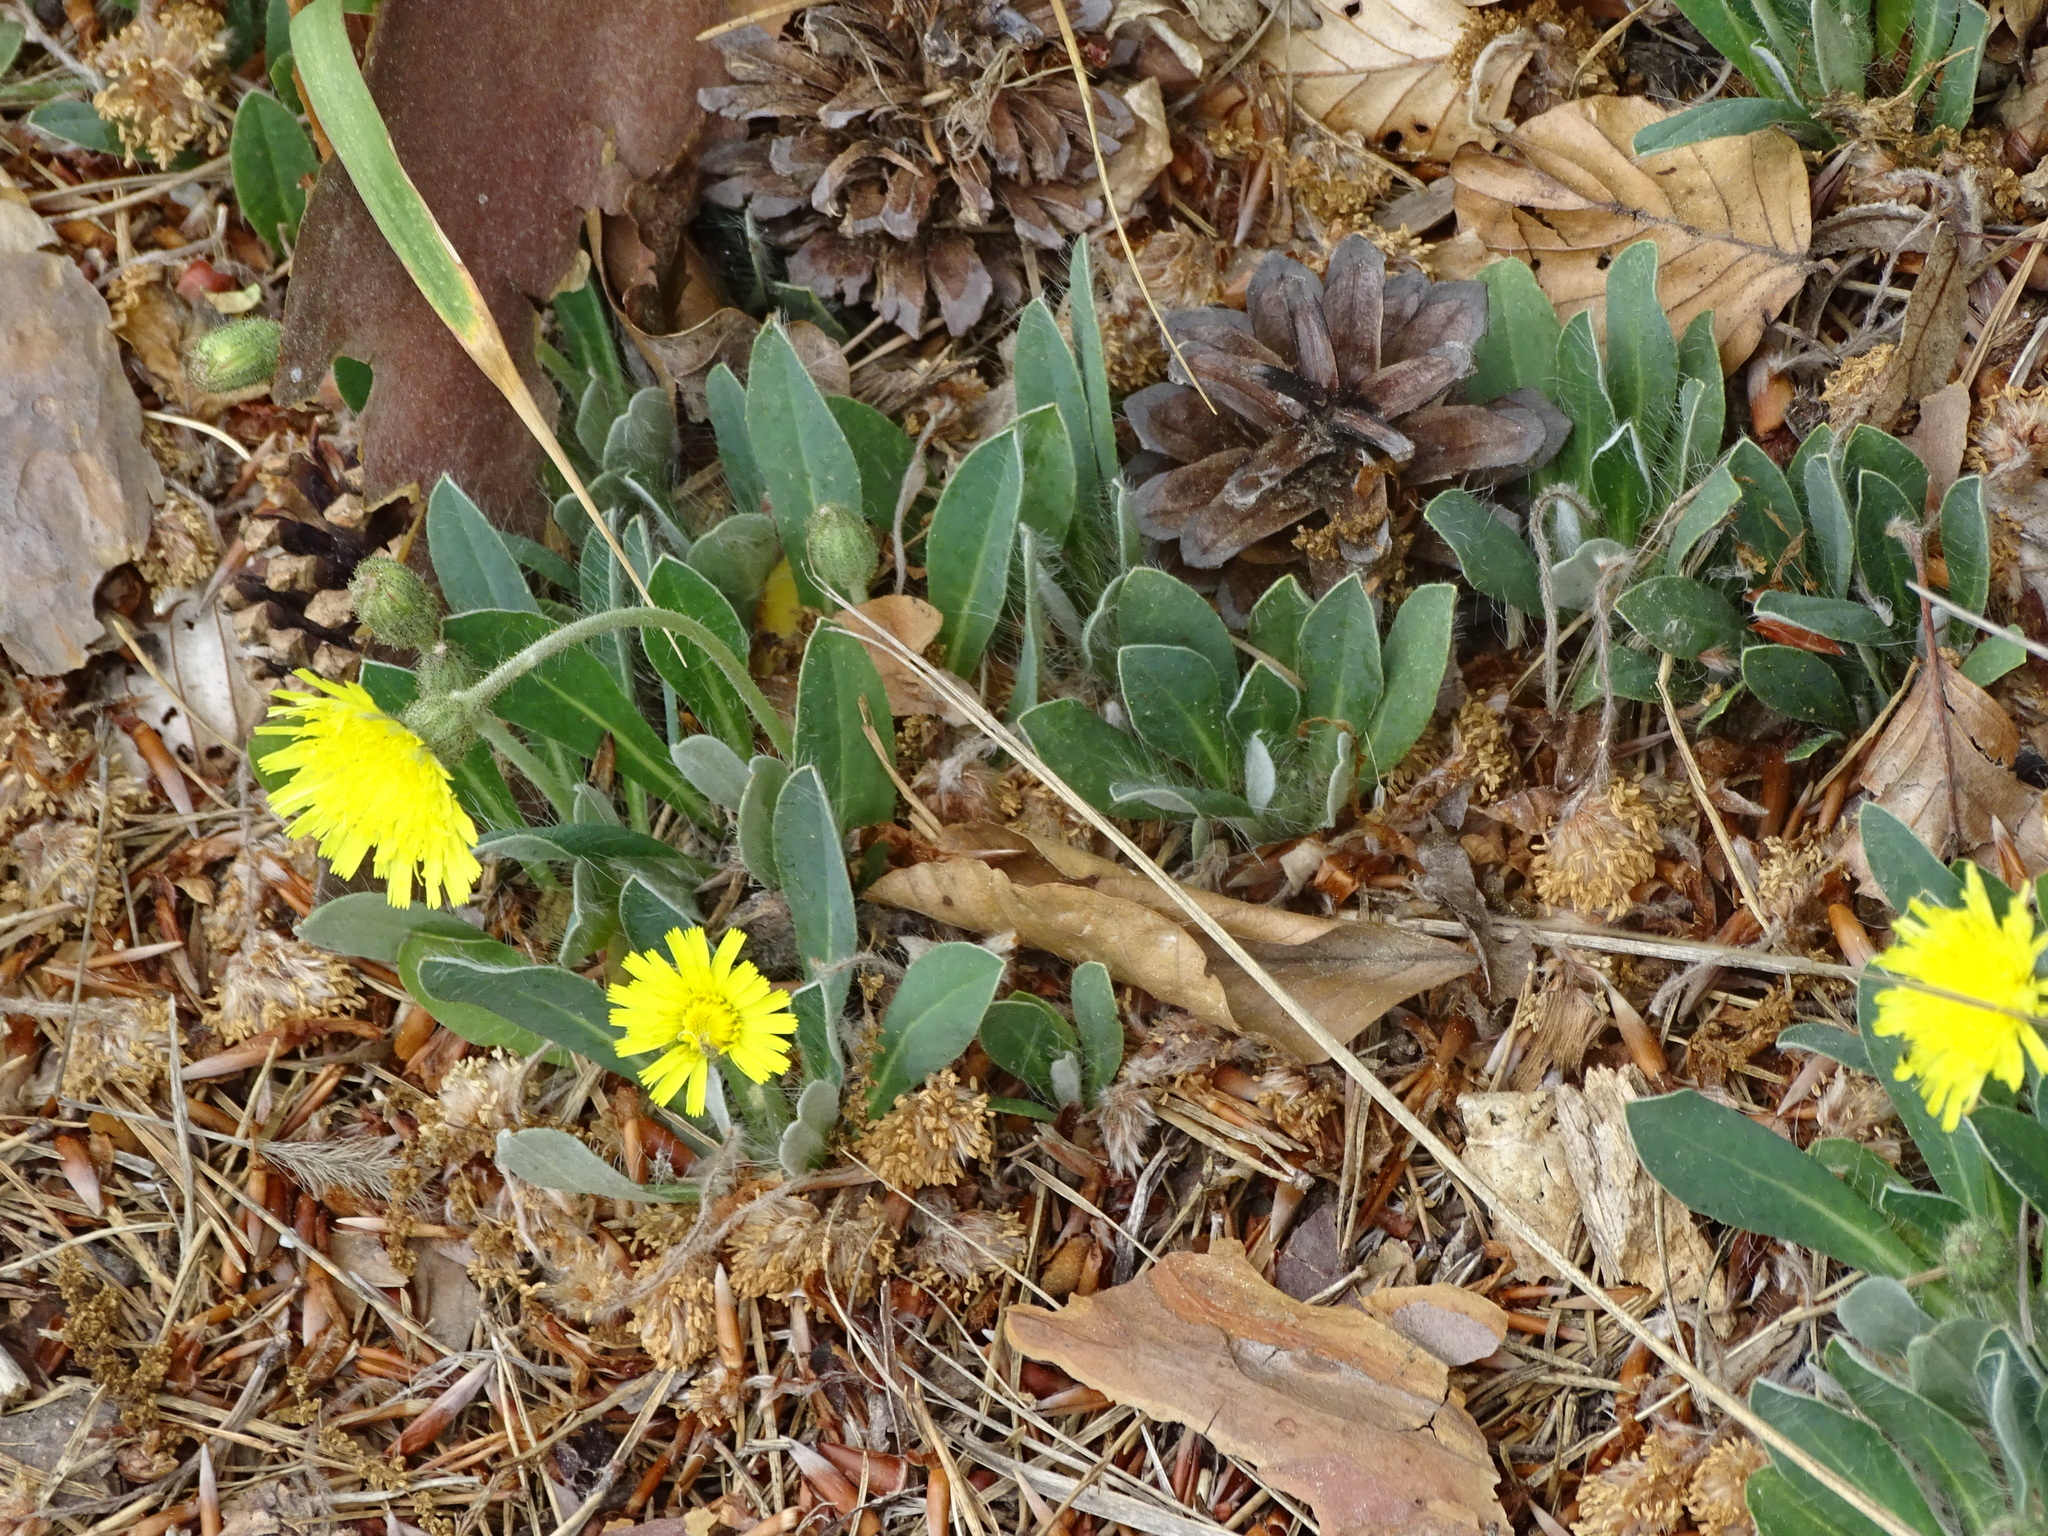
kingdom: Plantae
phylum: Tracheophyta
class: Magnoliopsida
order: Asterales
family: Asteraceae
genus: Pilosella
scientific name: Pilosella officinarum
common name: Mouse-ear hawkweed
